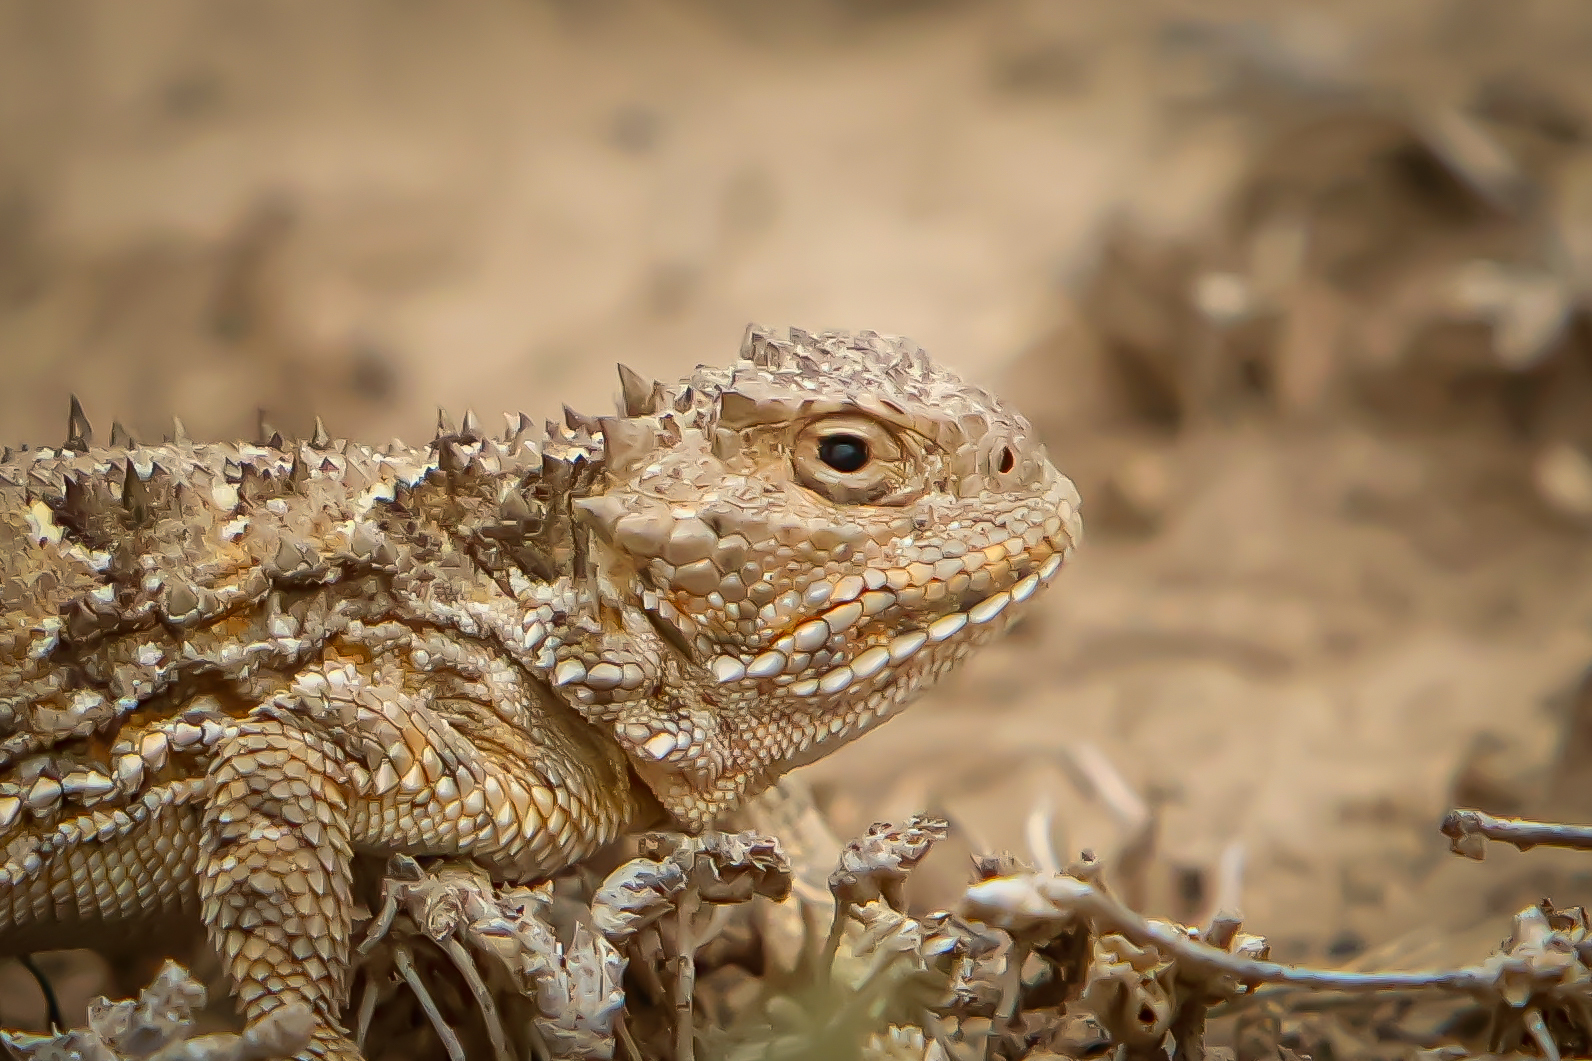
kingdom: Animalia
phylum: Chordata
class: Squamata
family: Phrynosomatidae
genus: Phrynosoma
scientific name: Phrynosoma hernandesi
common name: Greater short-horned lizard
